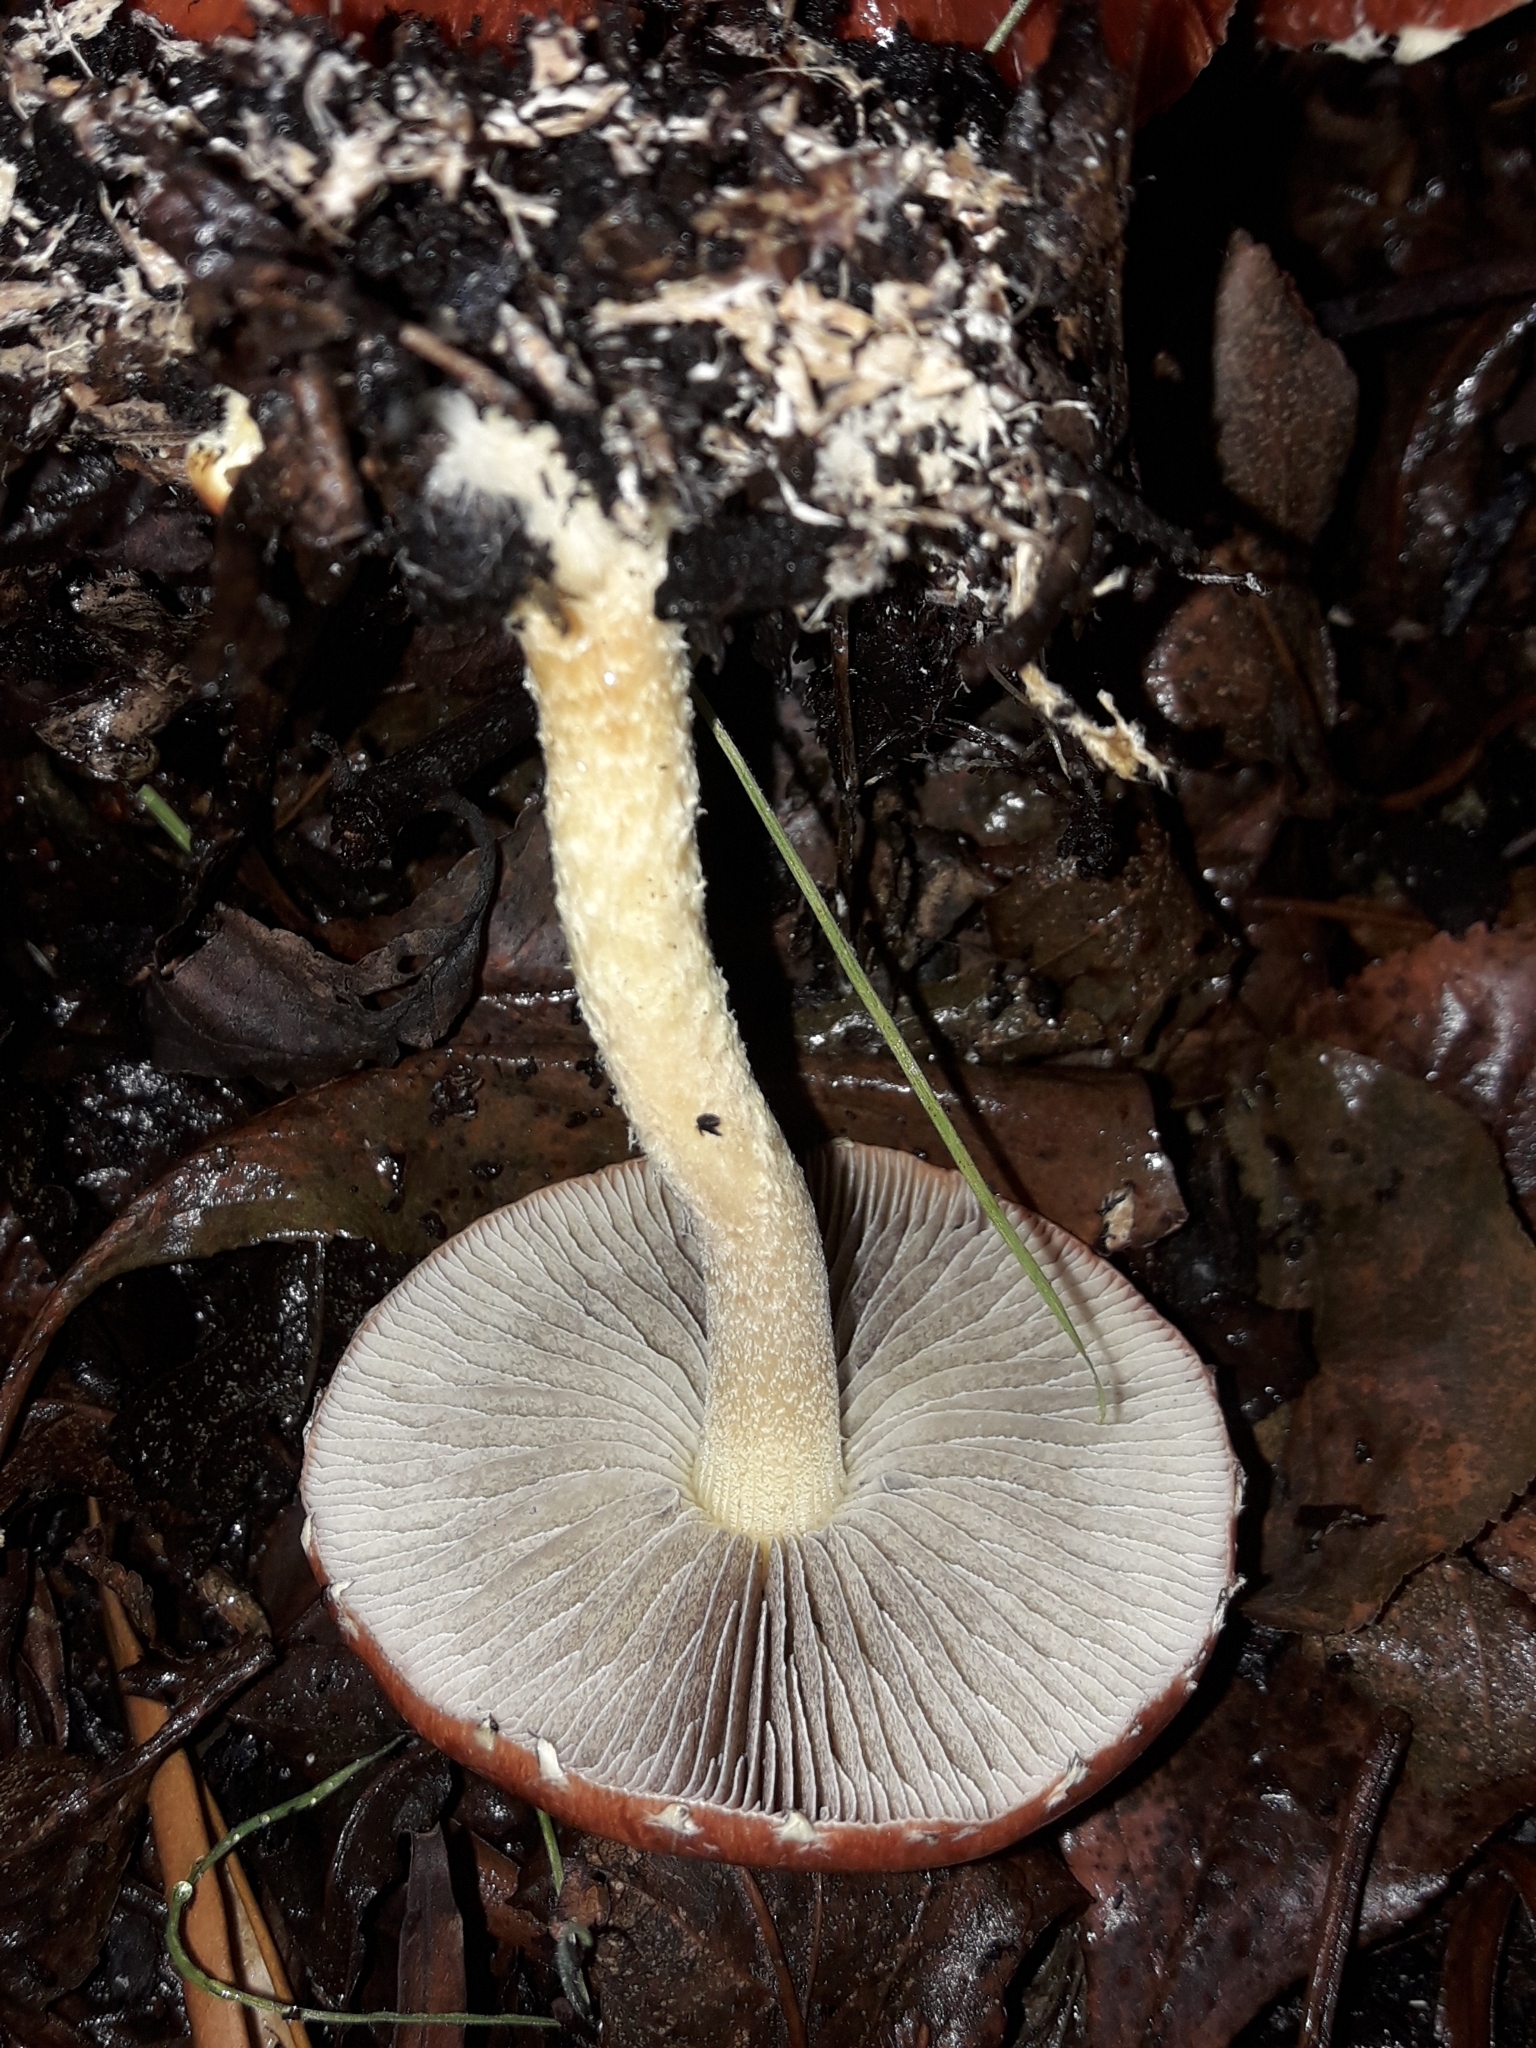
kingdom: Fungi
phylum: Basidiomycota
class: Agaricomycetes
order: Agaricales
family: Strophariaceae
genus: Leratiomyces
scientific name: Leratiomyces ceres
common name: Redlead roundhead
